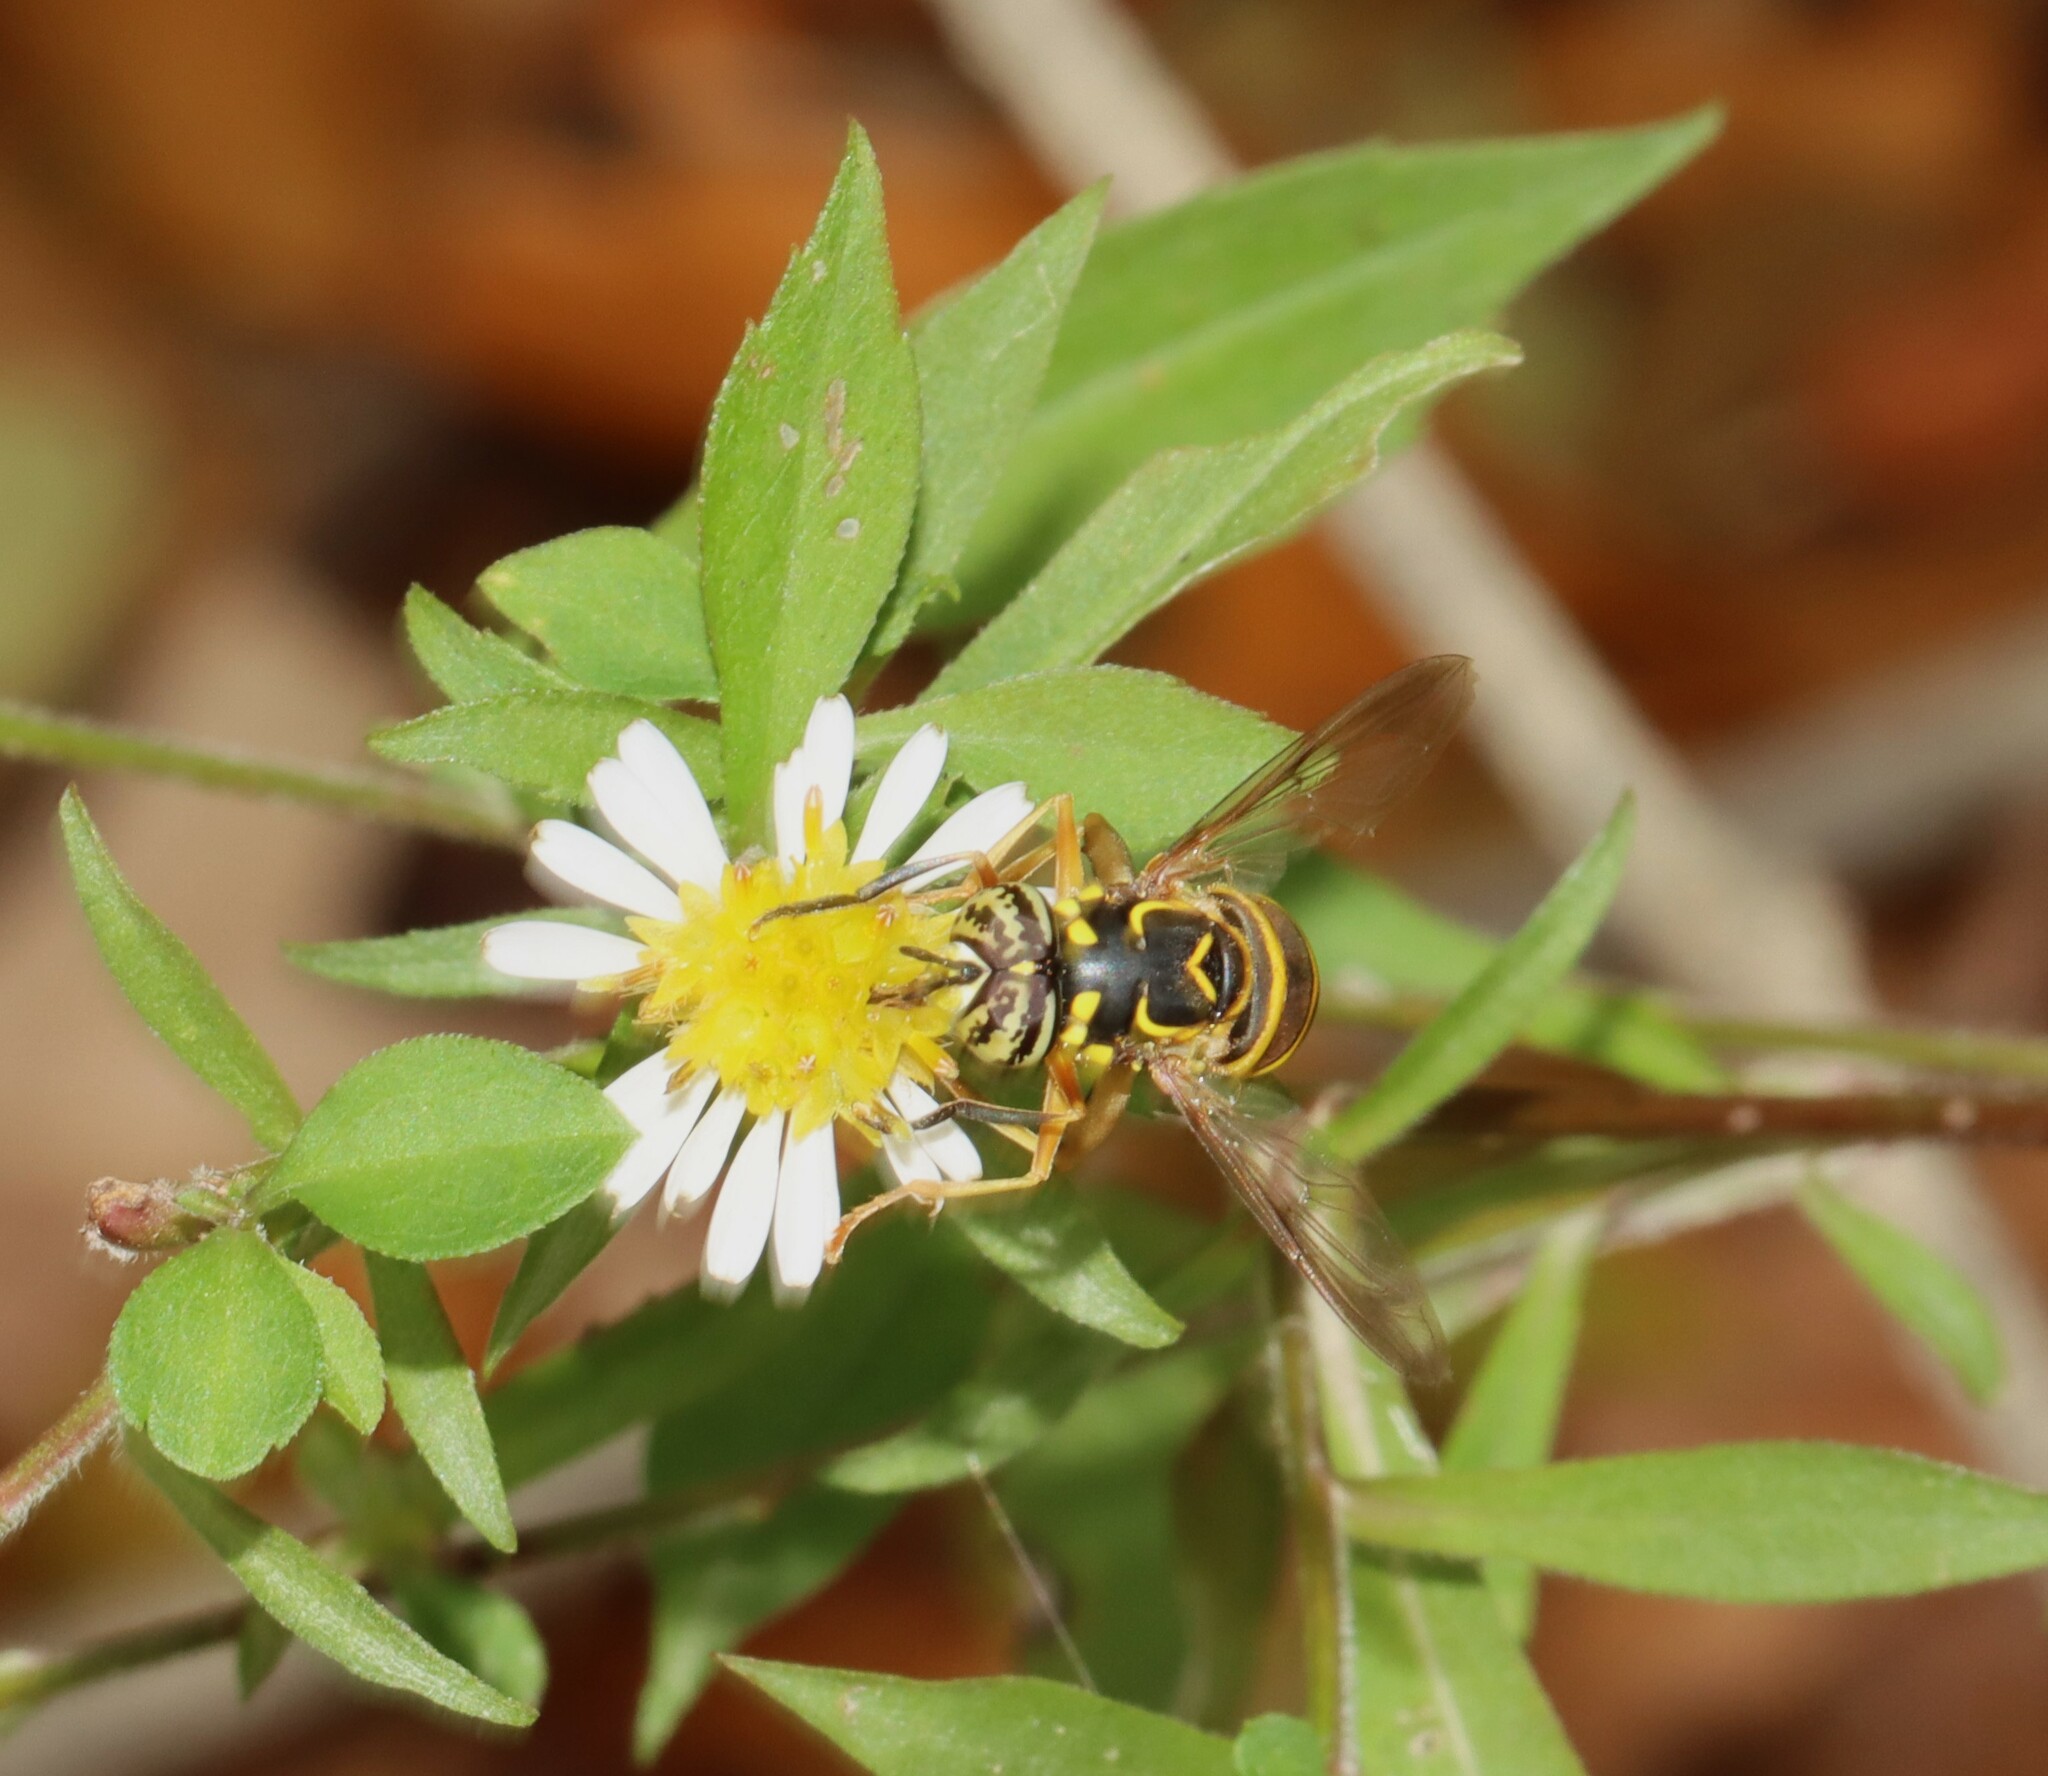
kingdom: Animalia
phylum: Arthropoda
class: Insecta
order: Diptera
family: Syrphidae
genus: Spilomyia
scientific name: Spilomyia longicornis
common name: Eastern hornet fly
